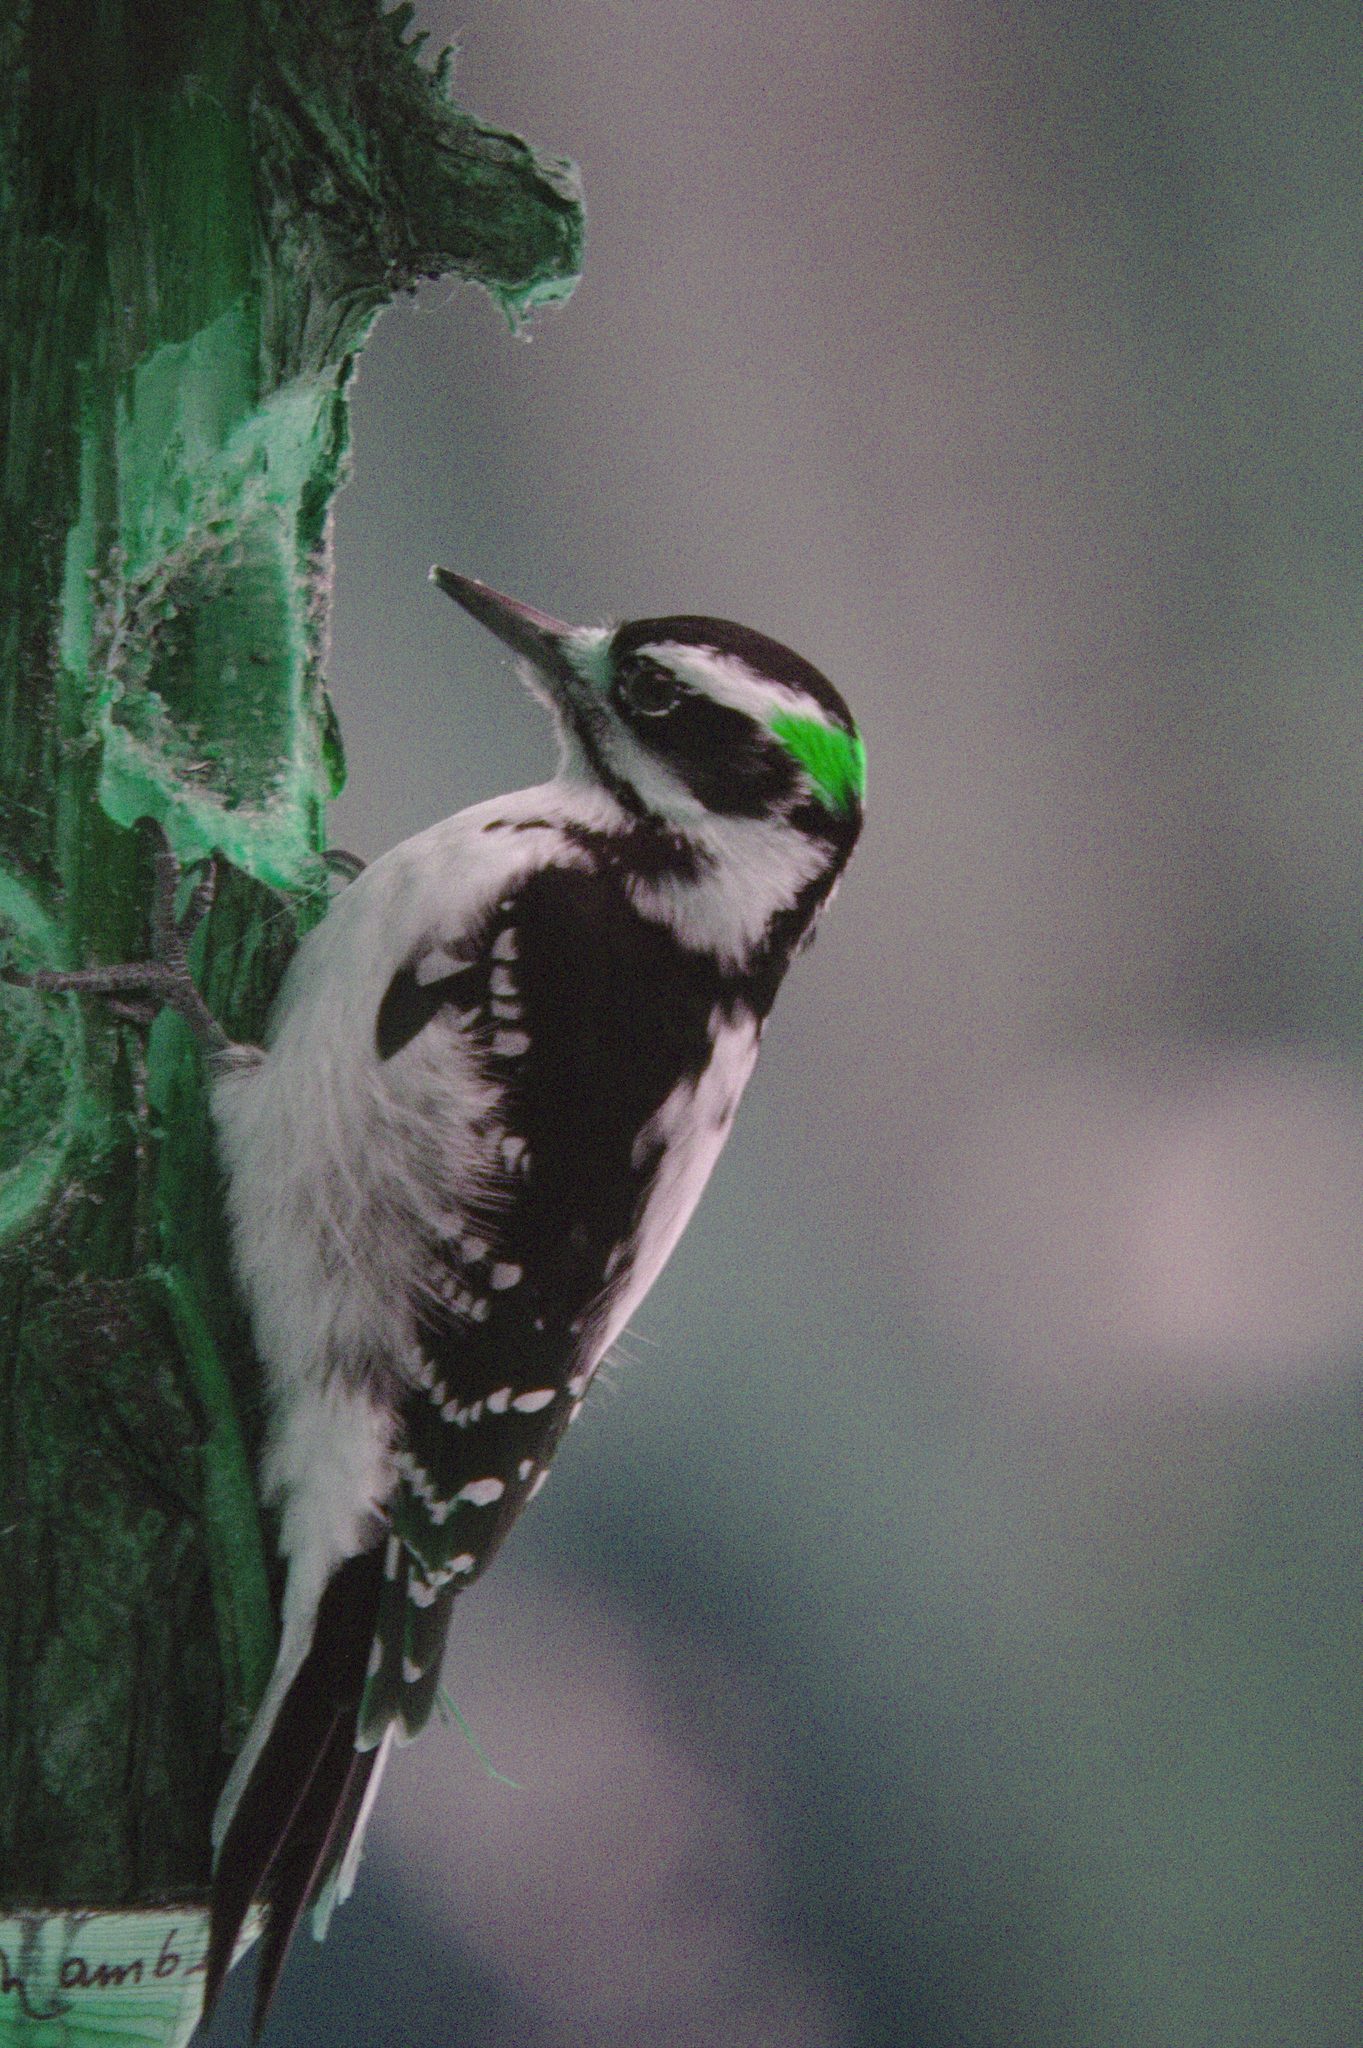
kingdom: Animalia
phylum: Chordata
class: Aves
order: Piciformes
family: Picidae
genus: Leuconotopicus
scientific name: Leuconotopicus villosus
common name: Hairy woodpecker
